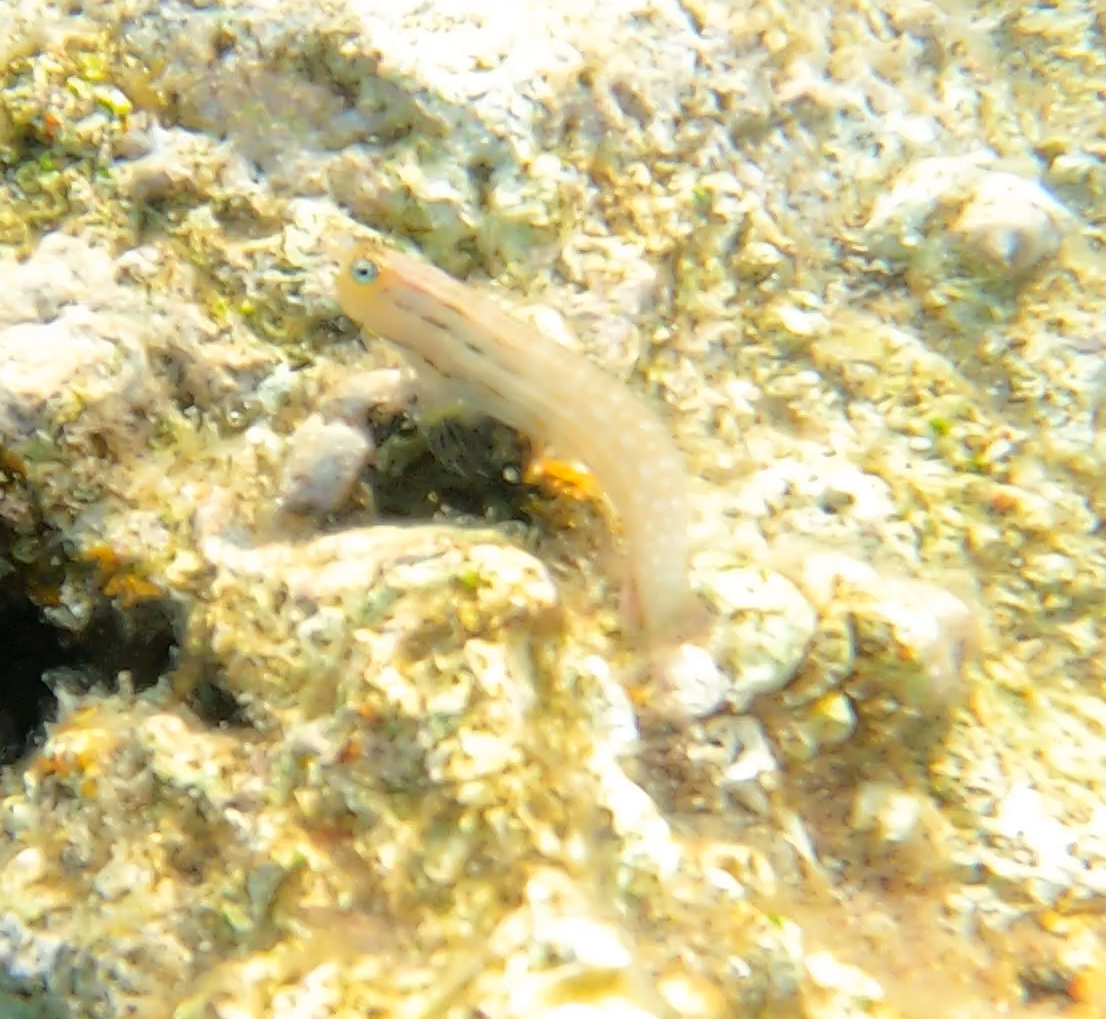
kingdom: Animalia
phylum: Chordata
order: Perciformes
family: Blenniidae
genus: Ecsenius
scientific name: Ecsenius dentex
